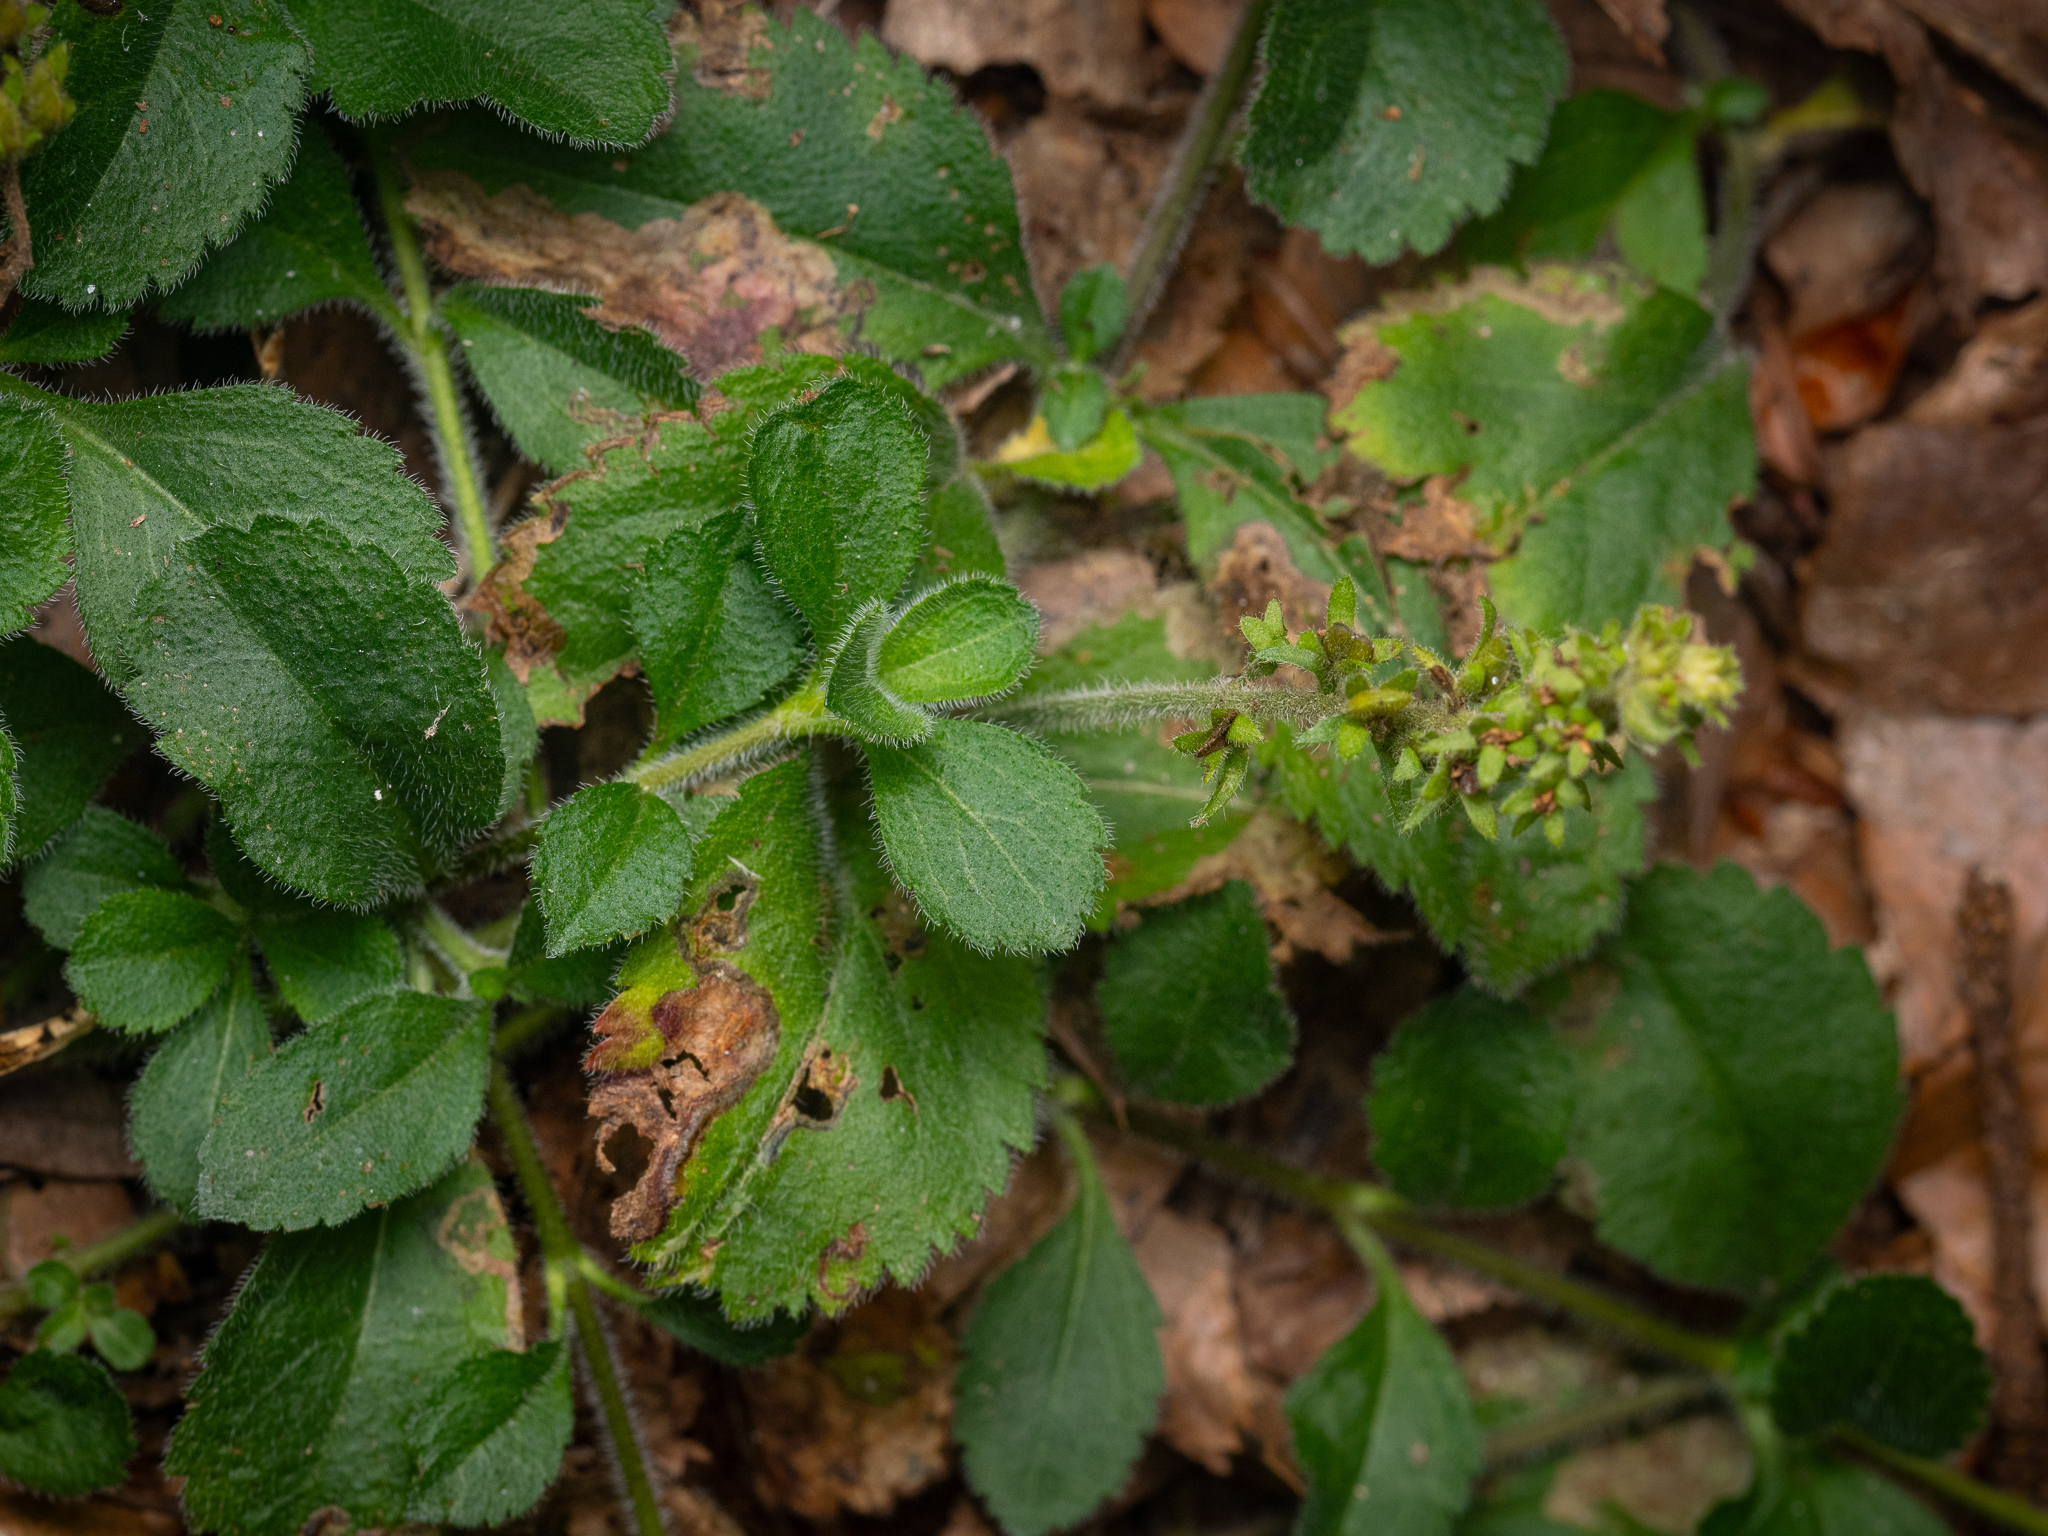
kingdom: Plantae
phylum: Tracheophyta
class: Magnoliopsida
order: Lamiales
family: Plantaginaceae
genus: Veronica
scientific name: Veronica officinalis
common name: Common speedwell
